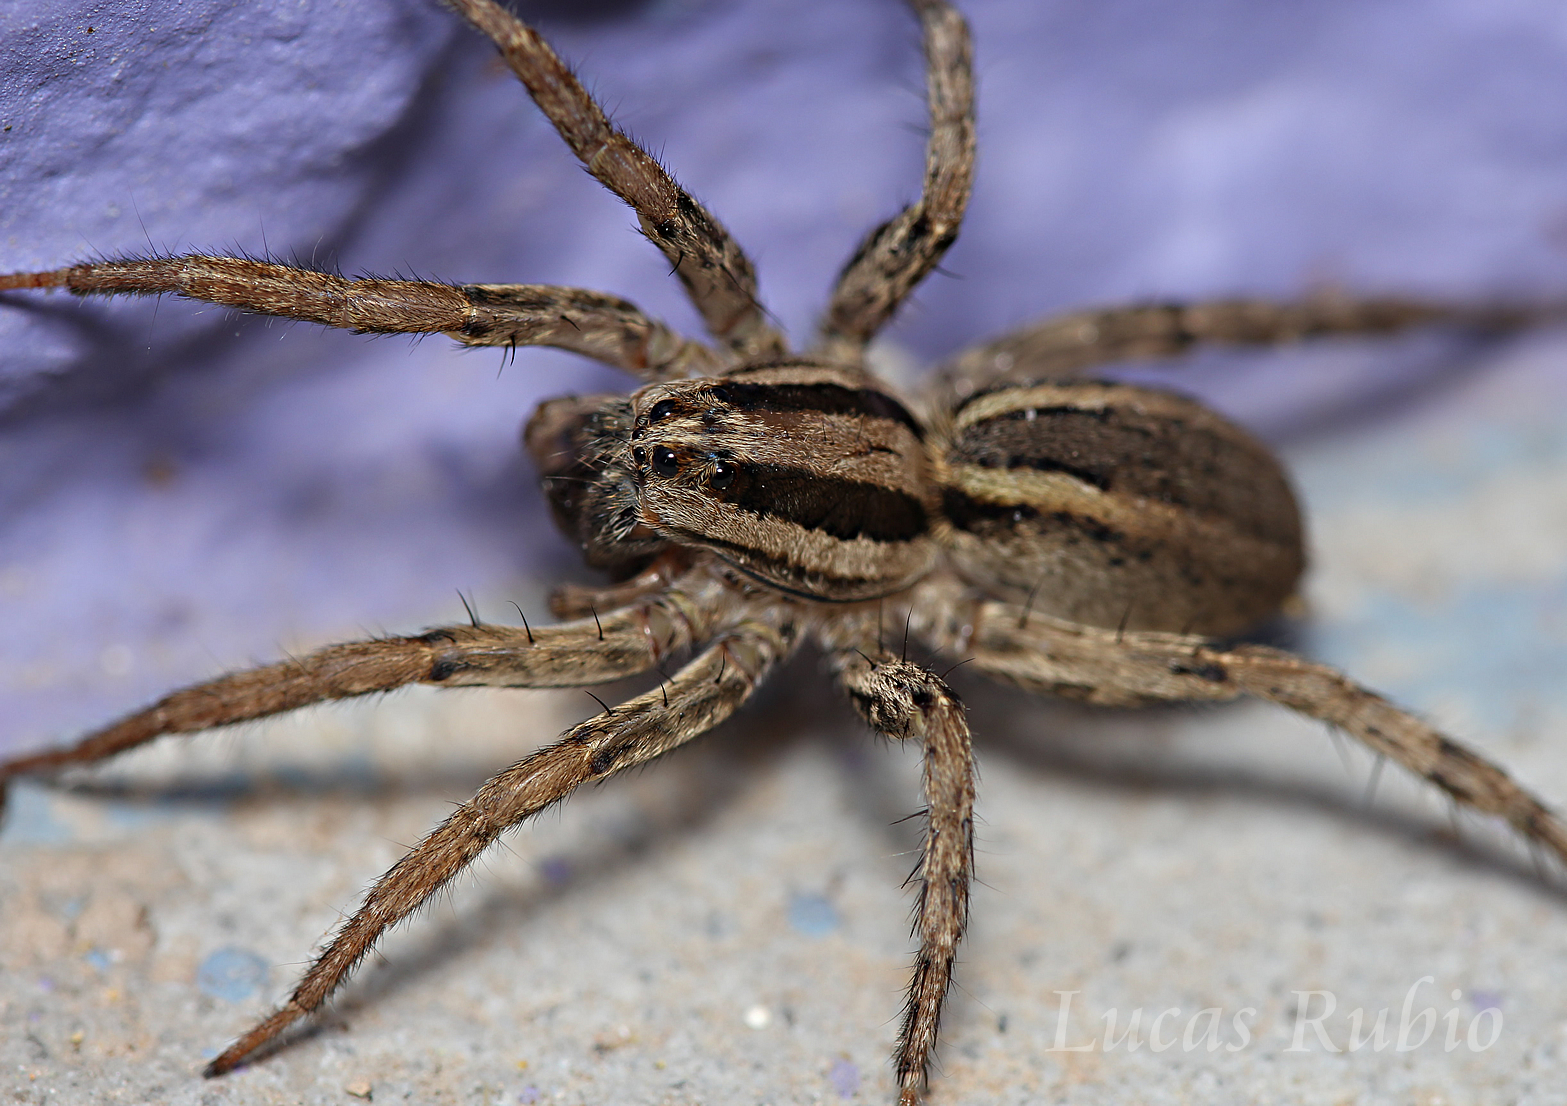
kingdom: Animalia
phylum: Arthropoda
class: Arachnida
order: Araneae
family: Lycosidae
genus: Hogna
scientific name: Hogna bivittata
